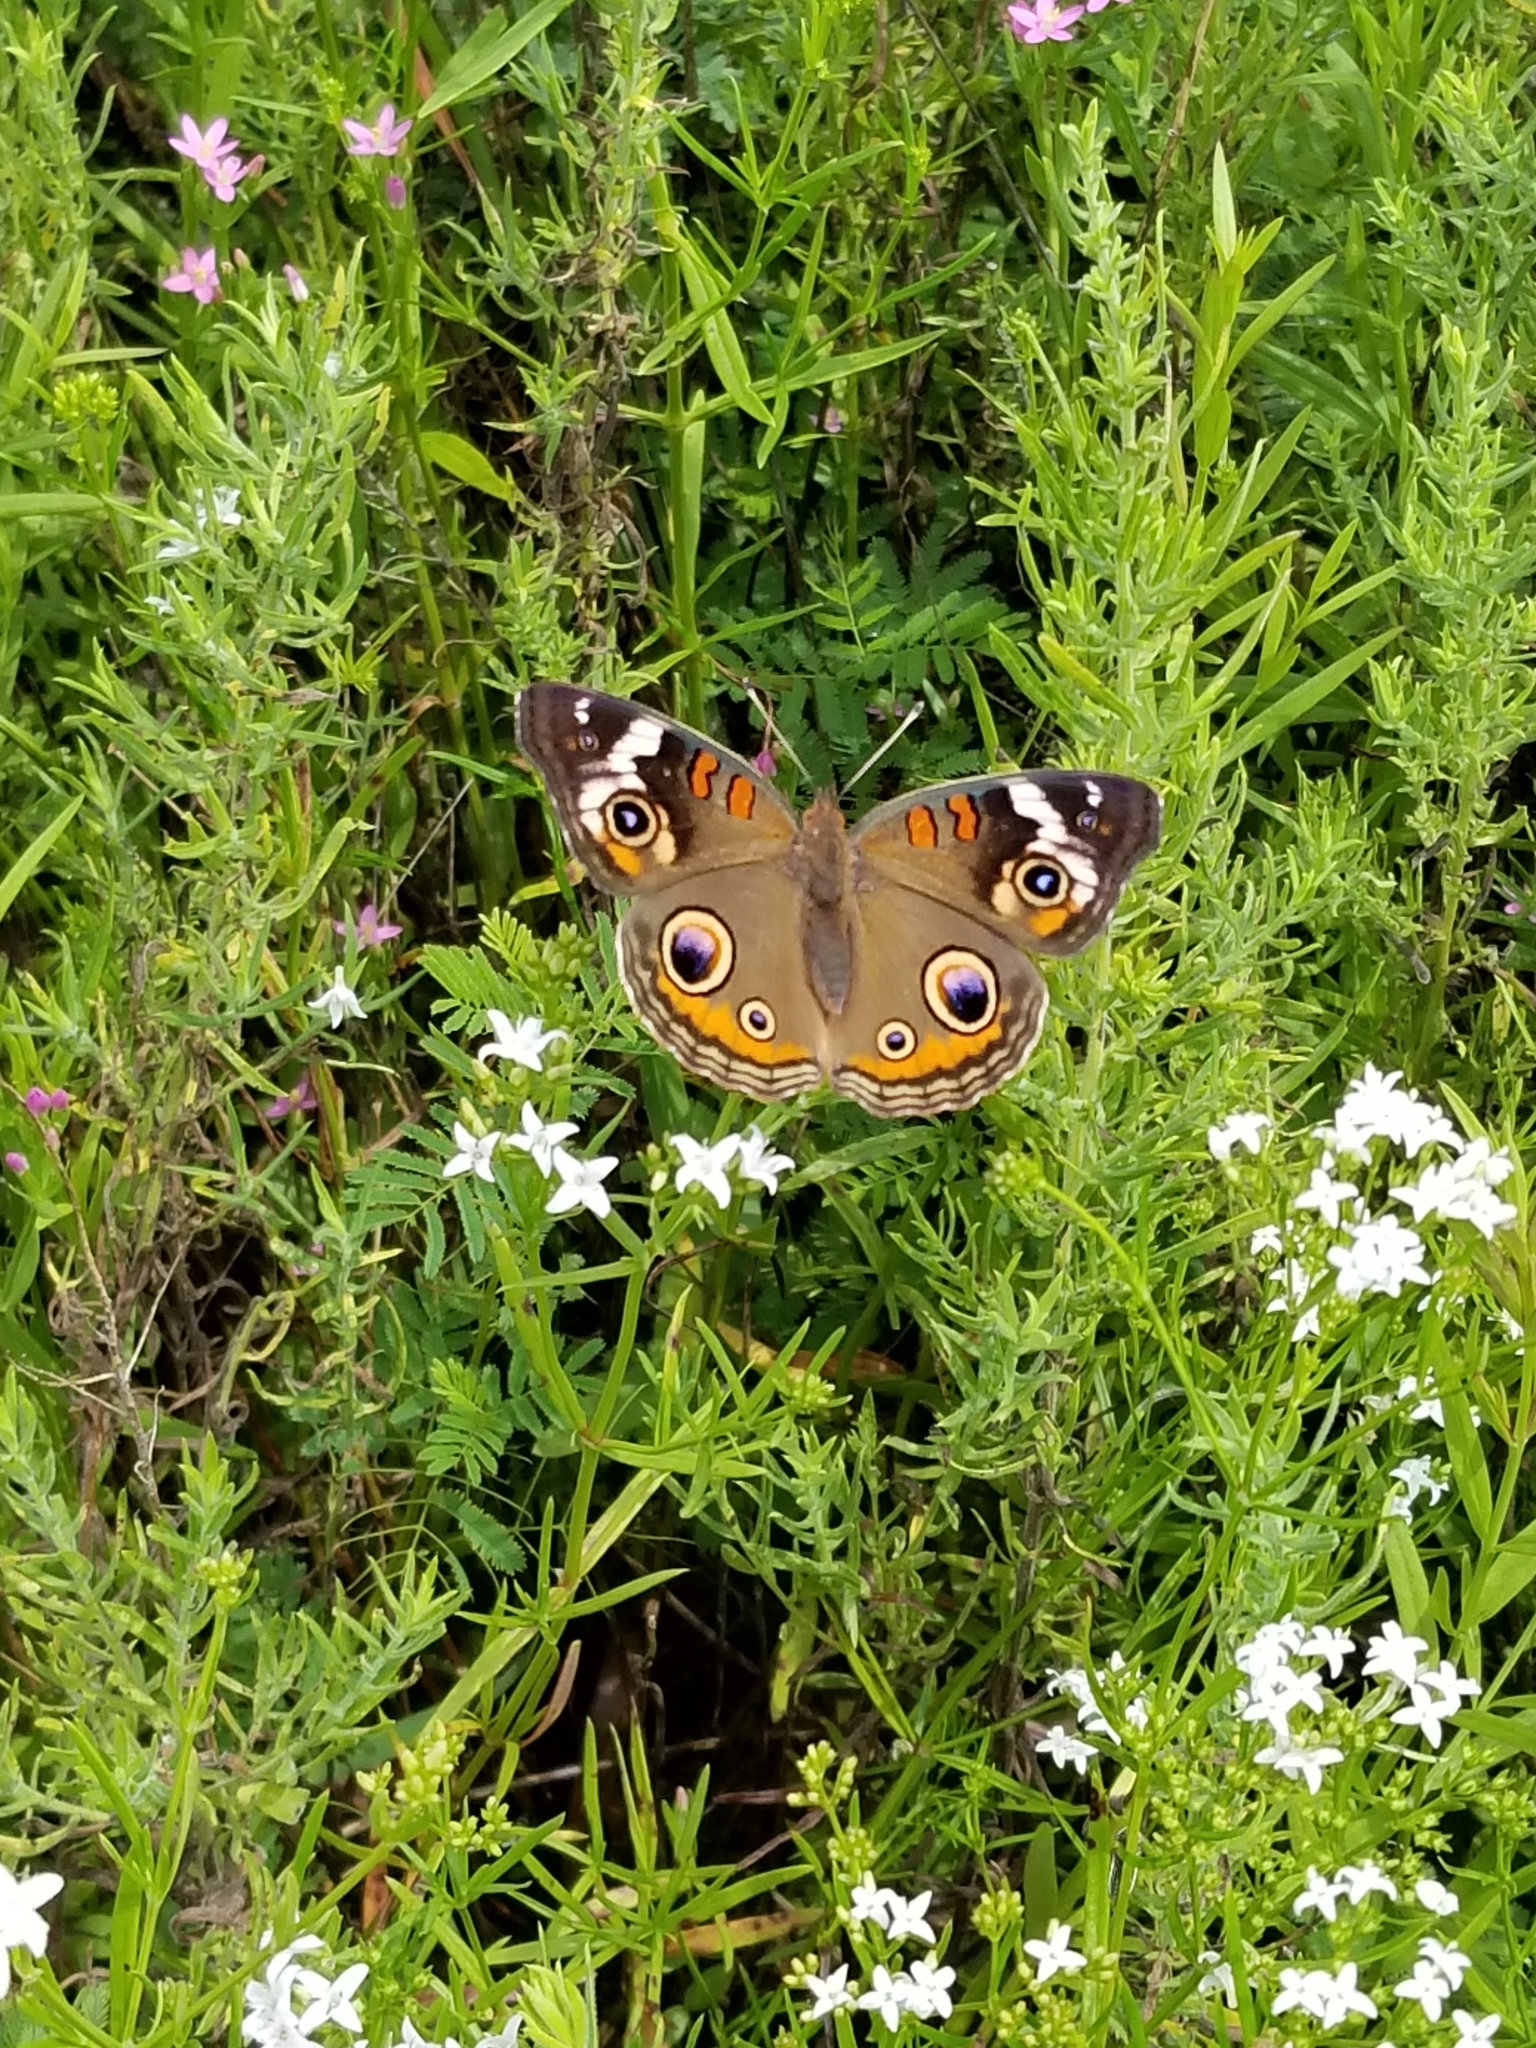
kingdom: Animalia
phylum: Arthropoda
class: Insecta
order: Lepidoptera
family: Nymphalidae
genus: Junonia
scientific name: Junonia coenia
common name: Common buckeye
